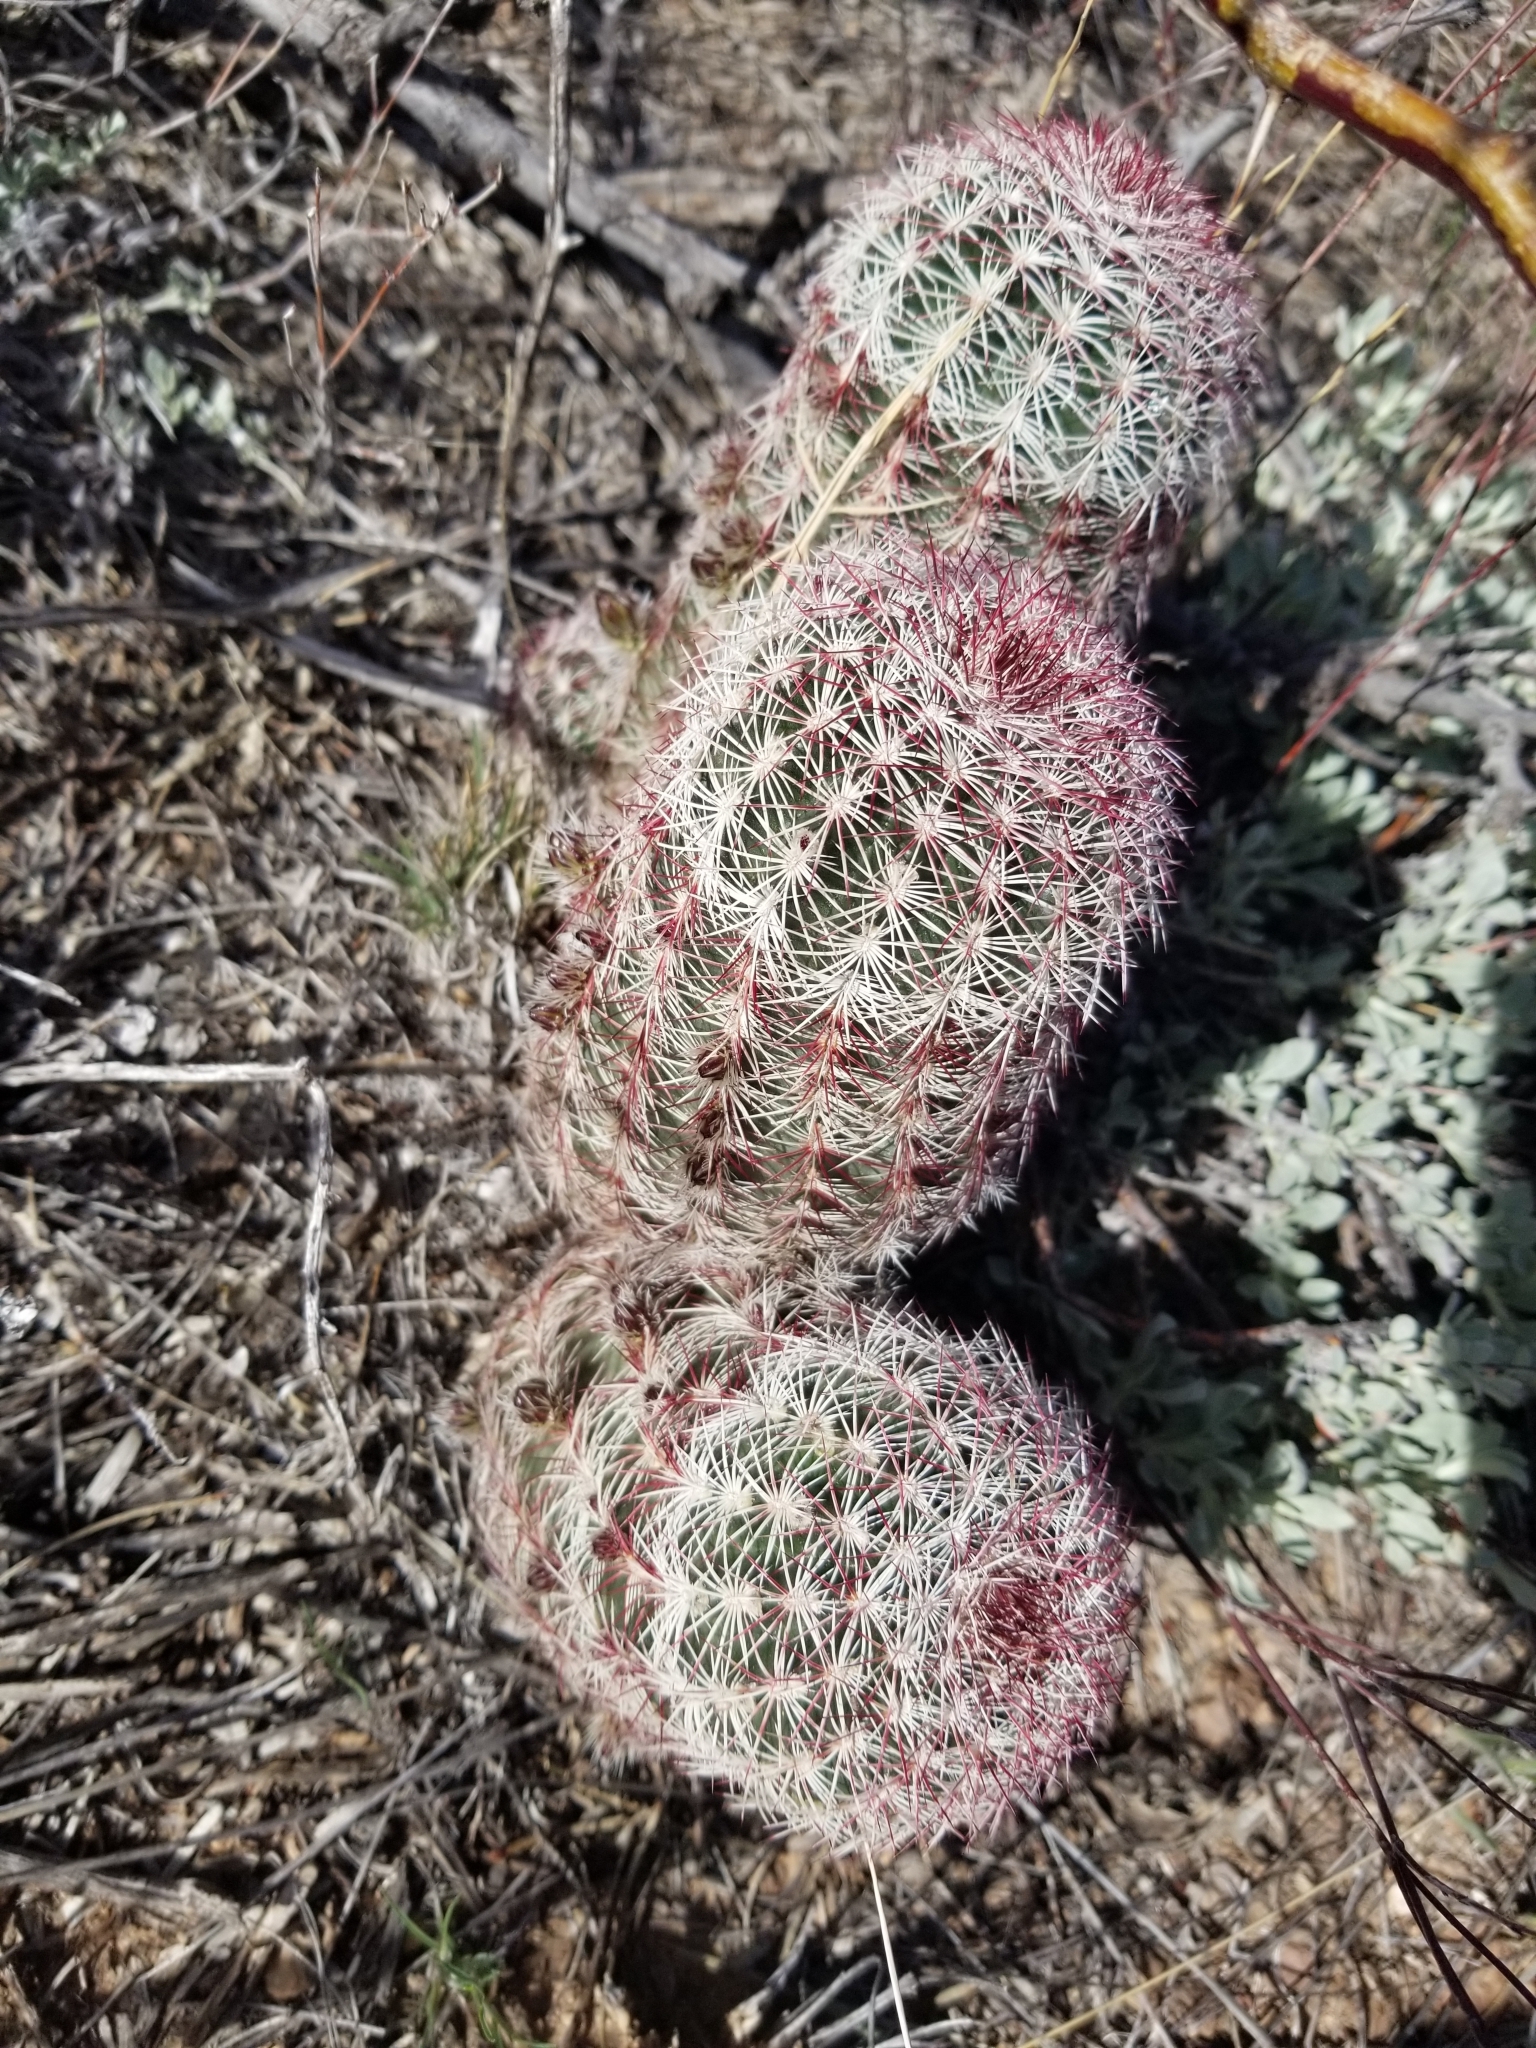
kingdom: Plantae
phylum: Tracheophyta
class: Magnoliopsida
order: Caryophyllales
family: Cactaceae
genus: Echinocereus
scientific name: Echinocereus viridiflorus
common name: Nylon hedgehog cactus
